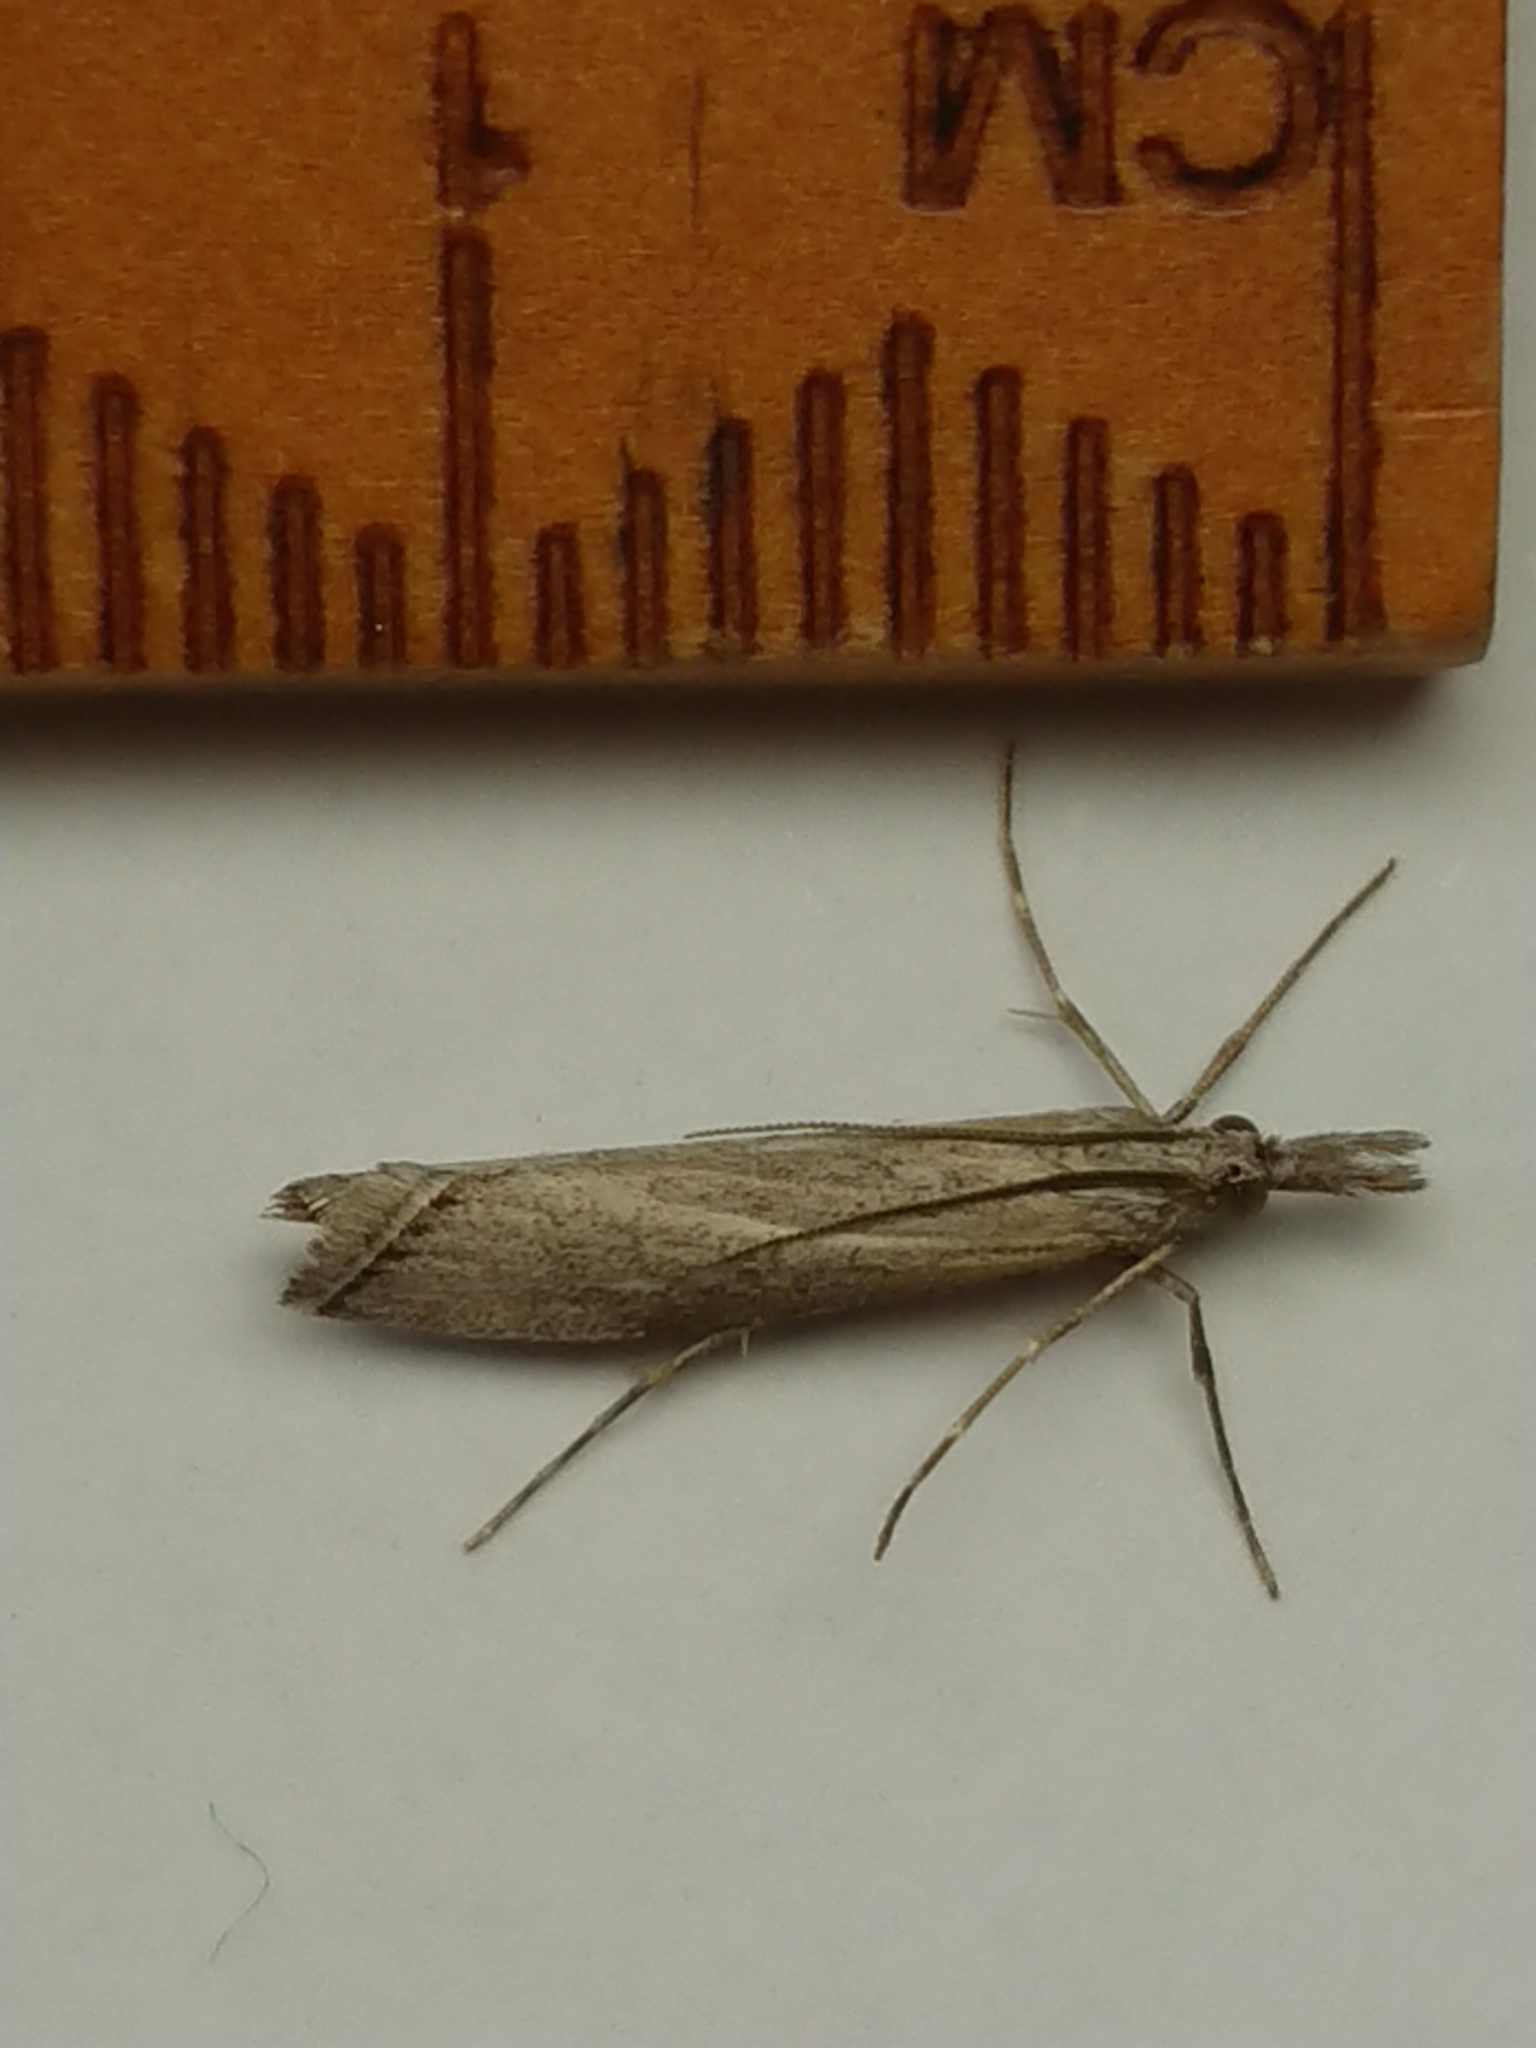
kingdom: Animalia
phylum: Arthropoda
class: Insecta
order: Lepidoptera
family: Crambidae
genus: Orocrambus
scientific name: Orocrambus cyclopicus
